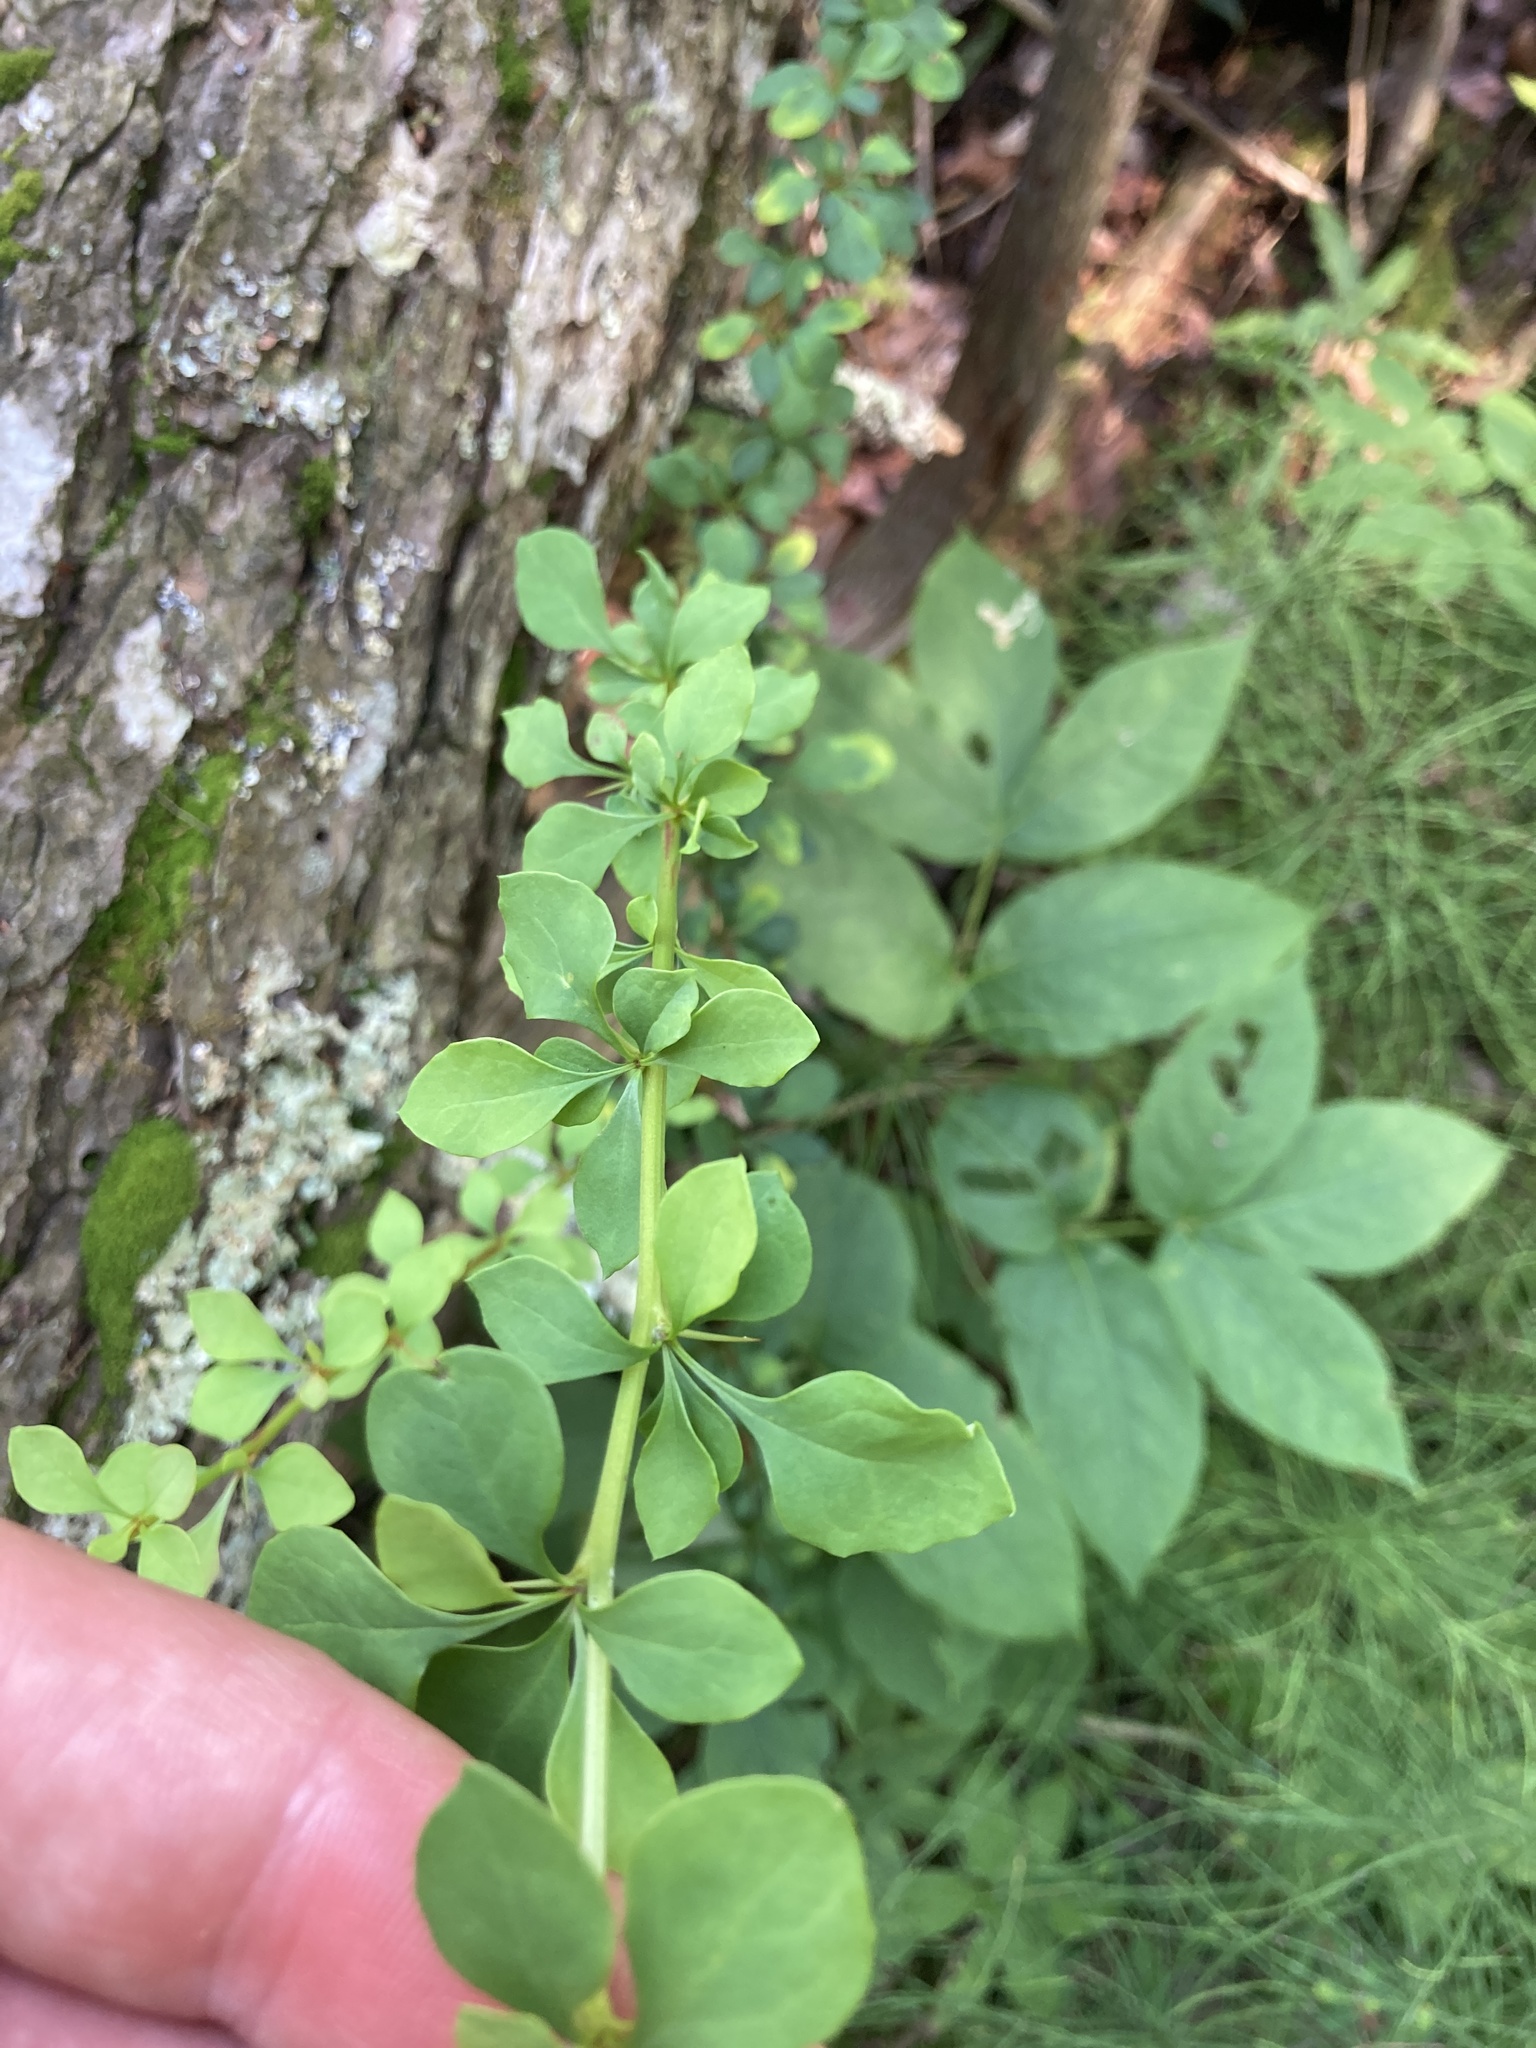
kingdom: Plantae
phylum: Tracheophyta
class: Magnoliopsida
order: Ranunculales
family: Berberidaceae
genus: Berberis
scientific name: Berberis thunbergii
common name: Japanese barberry
